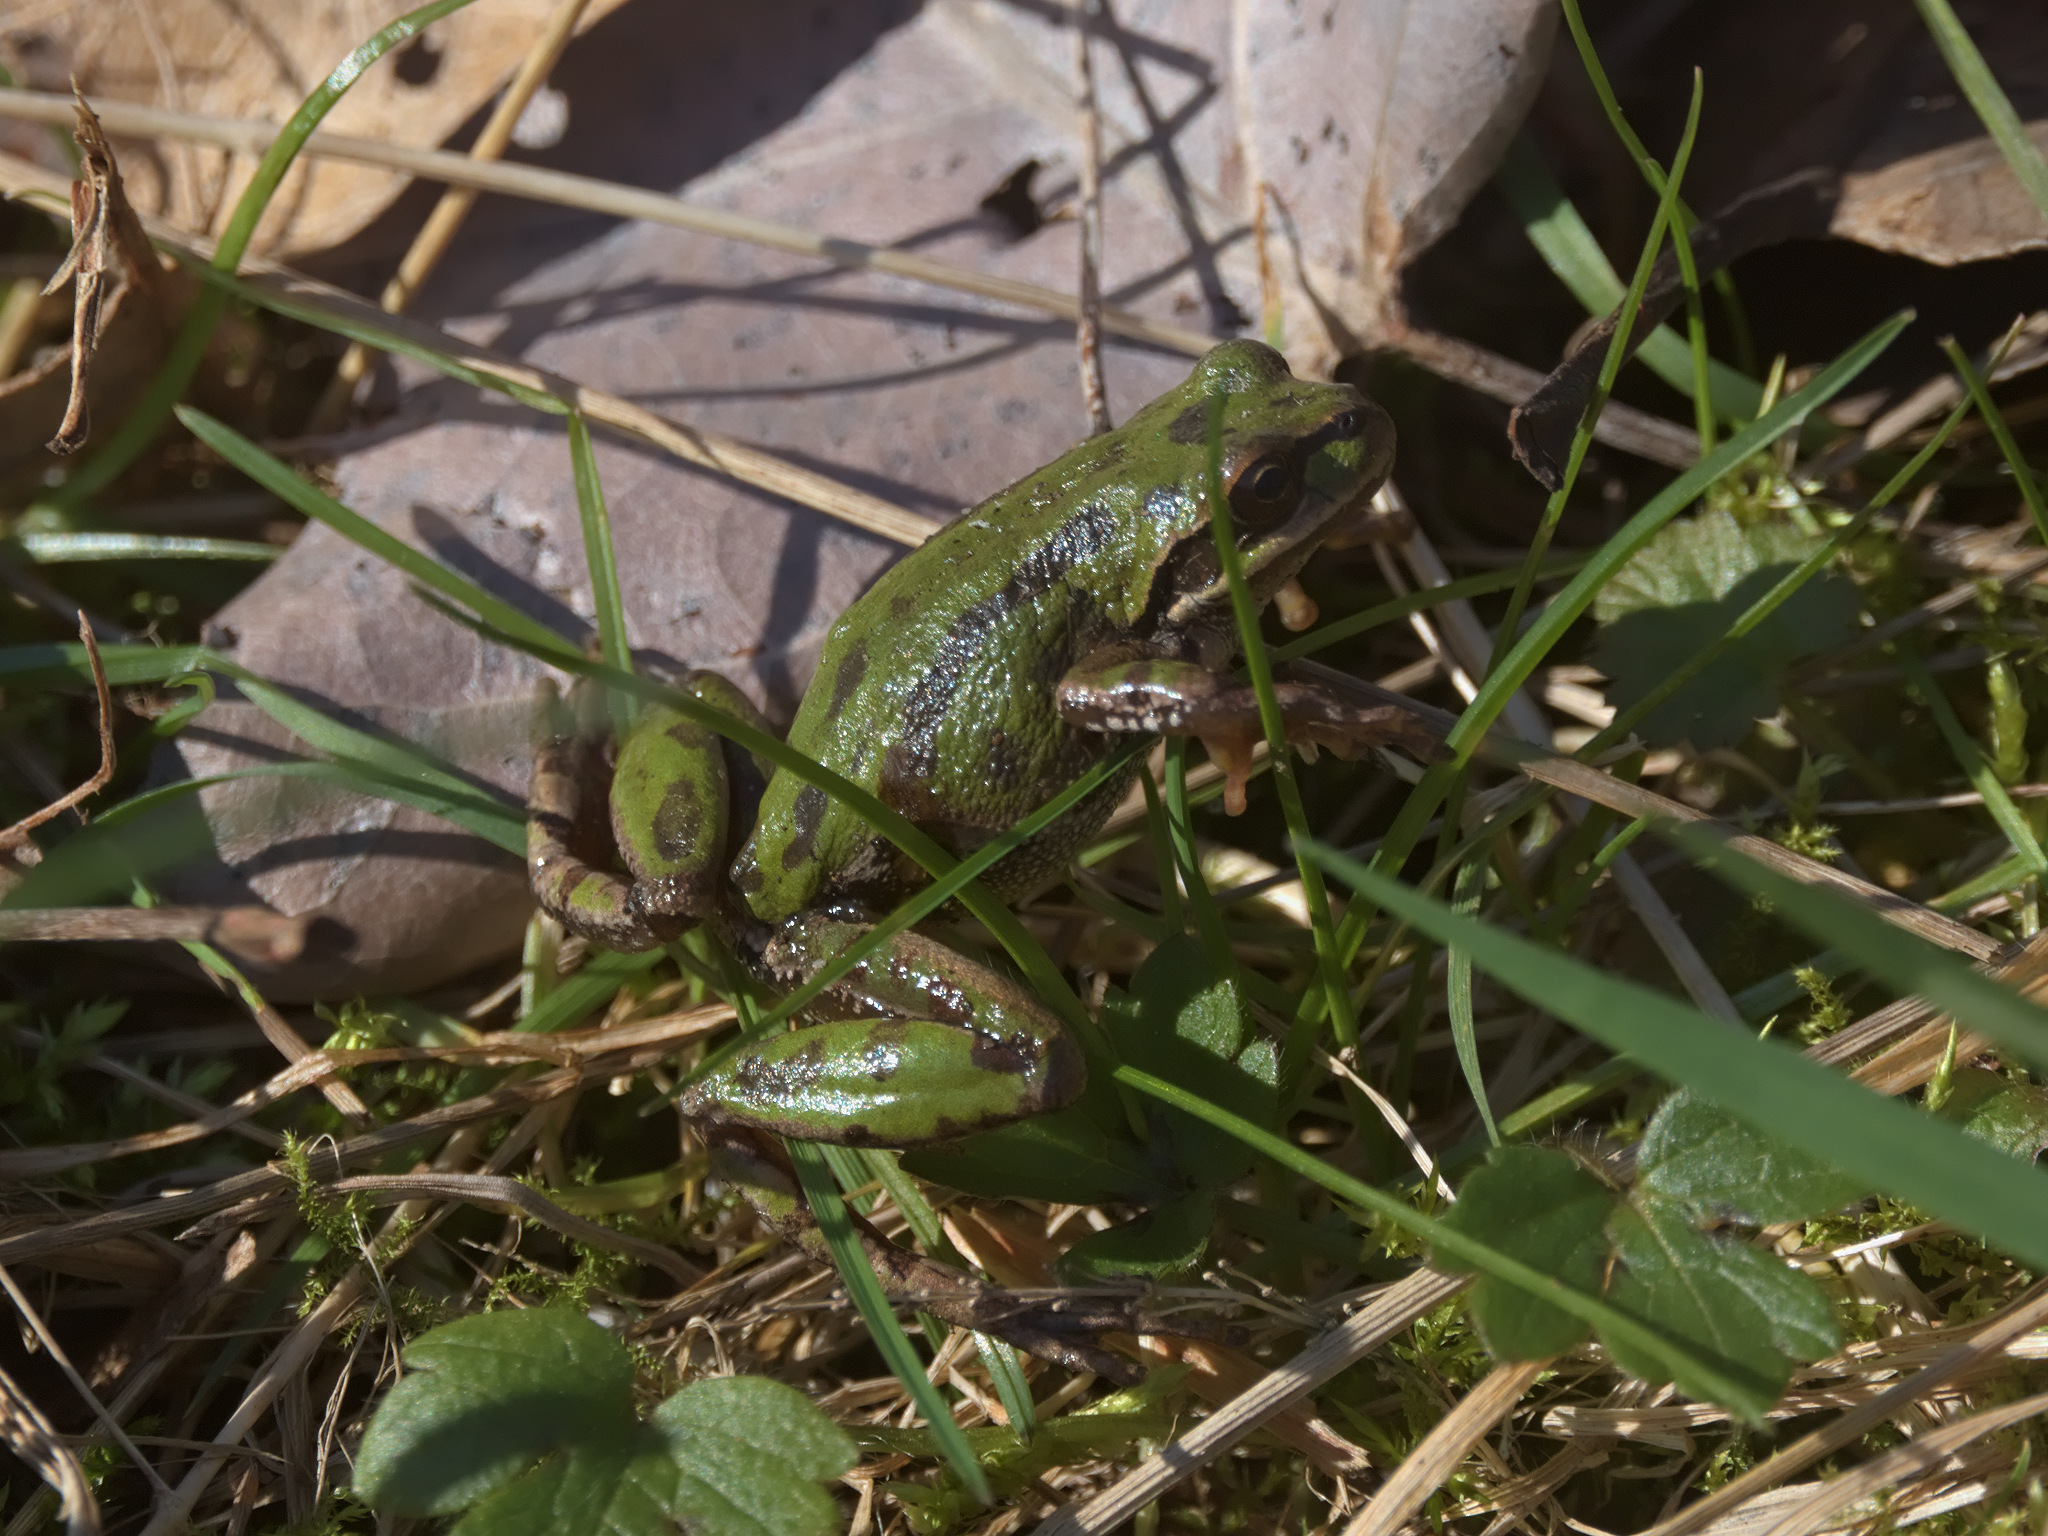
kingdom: Animalia
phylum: Chordata
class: Amphibia
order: Anura
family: Hylidae
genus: Pseudacris
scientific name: Pseudacris regilla
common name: Pacific chorus frog
